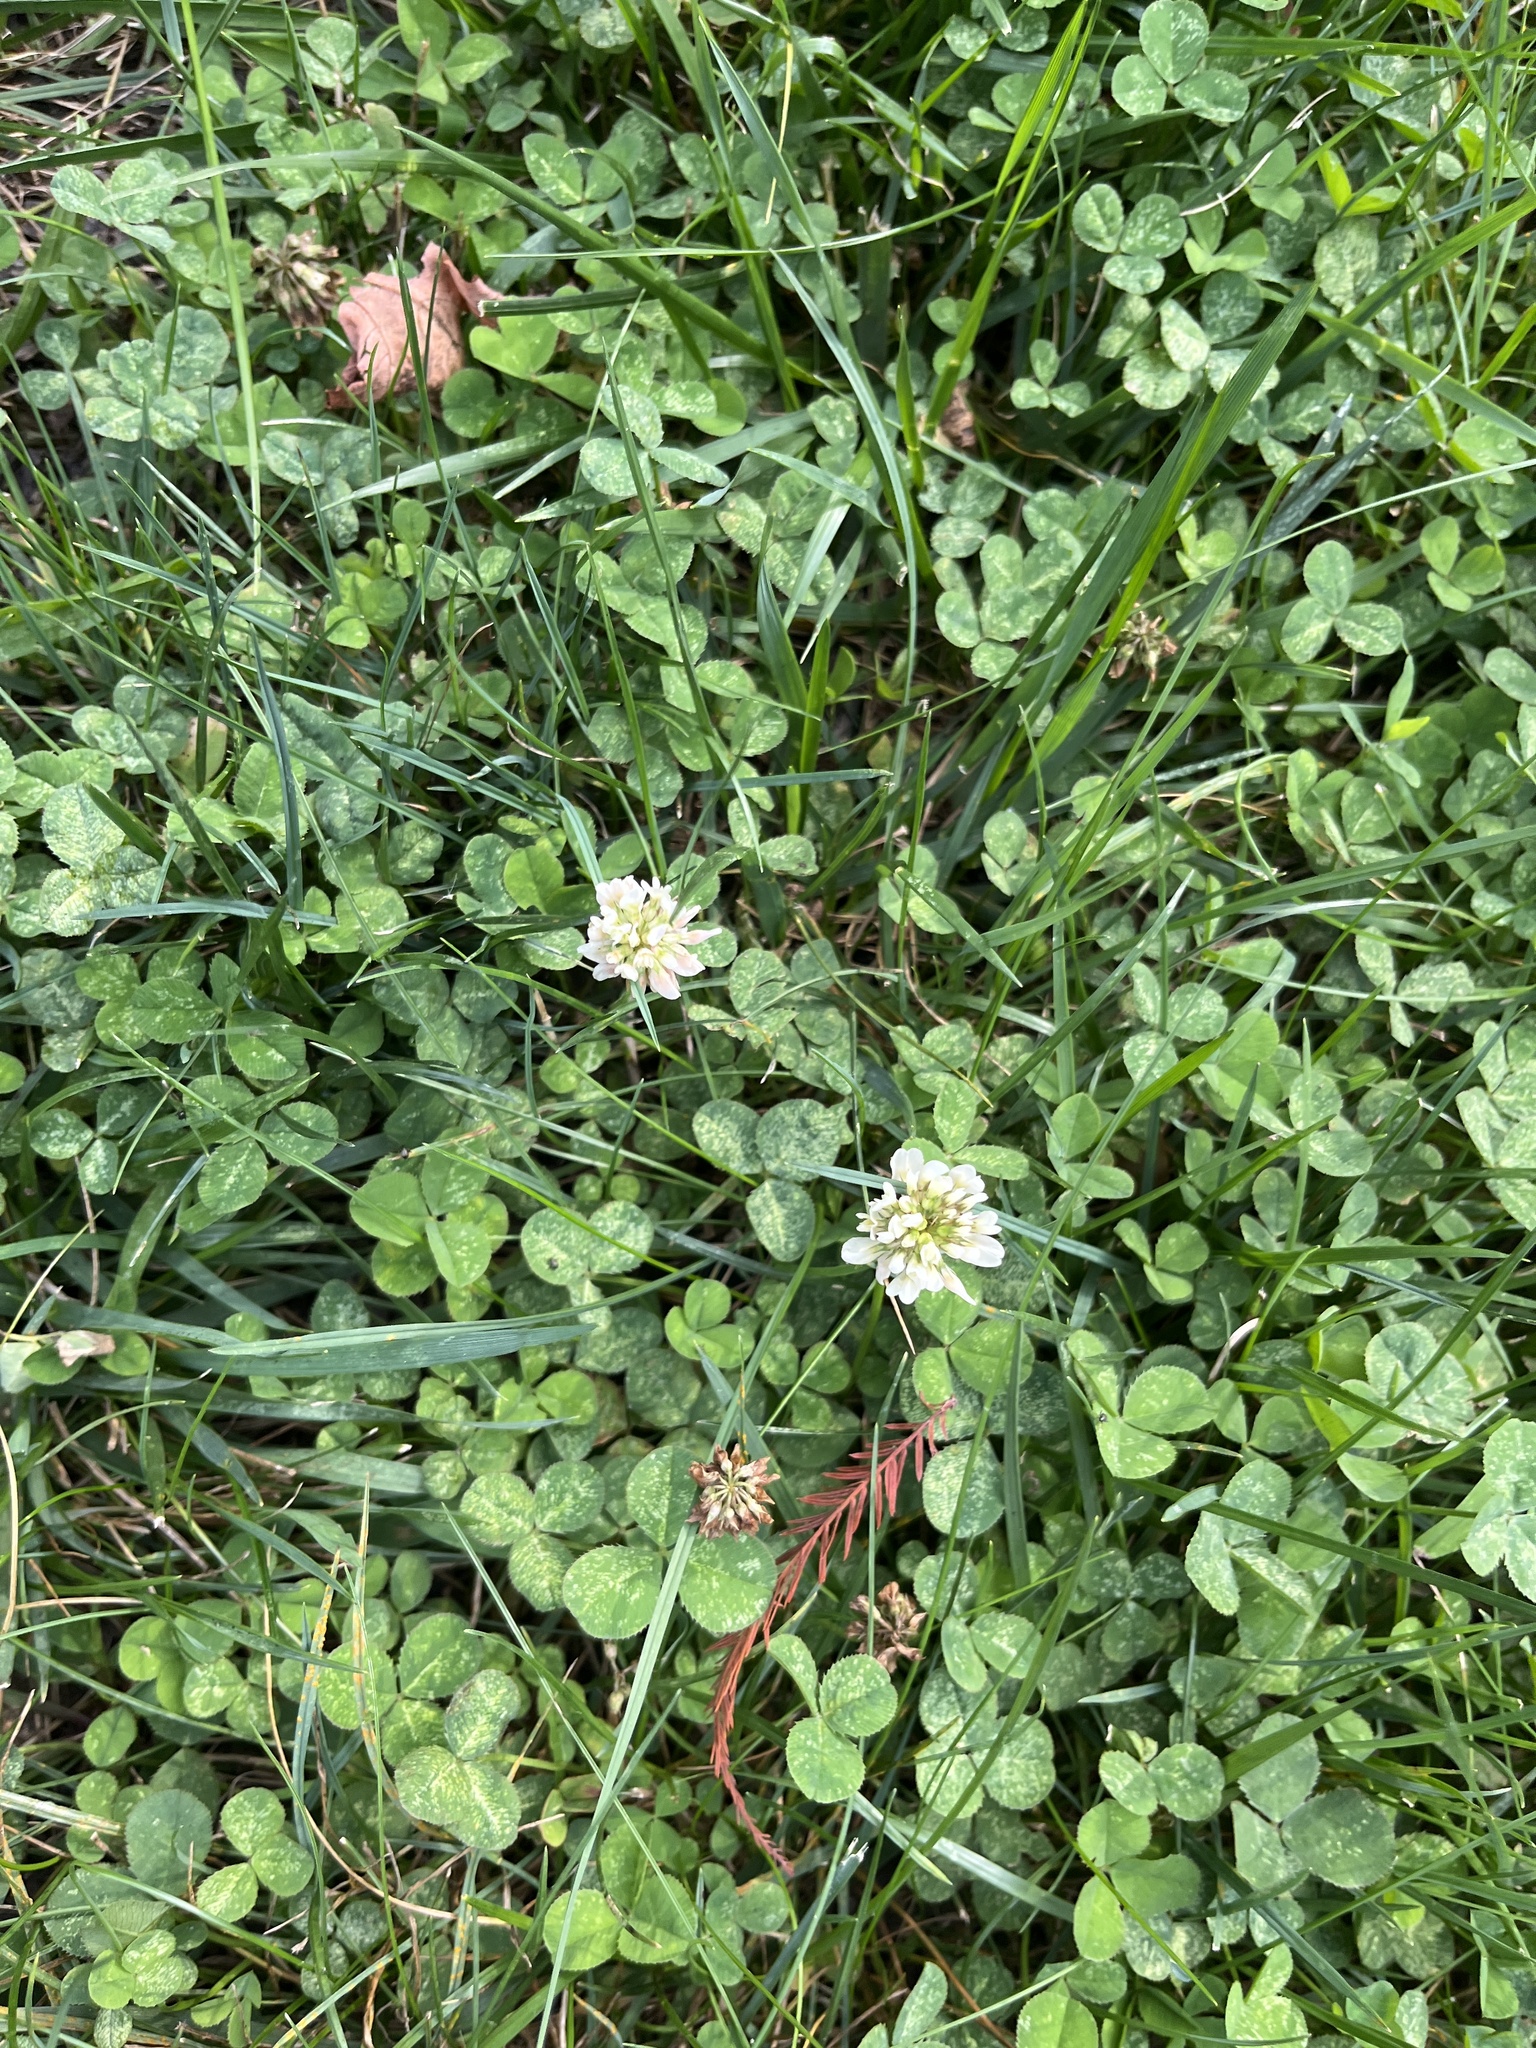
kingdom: Plantae
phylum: Tracheophyta
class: Magnoliopsida
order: Fabales
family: Fabaceae
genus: Trifolium
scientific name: Trifolium repens
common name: White clover
